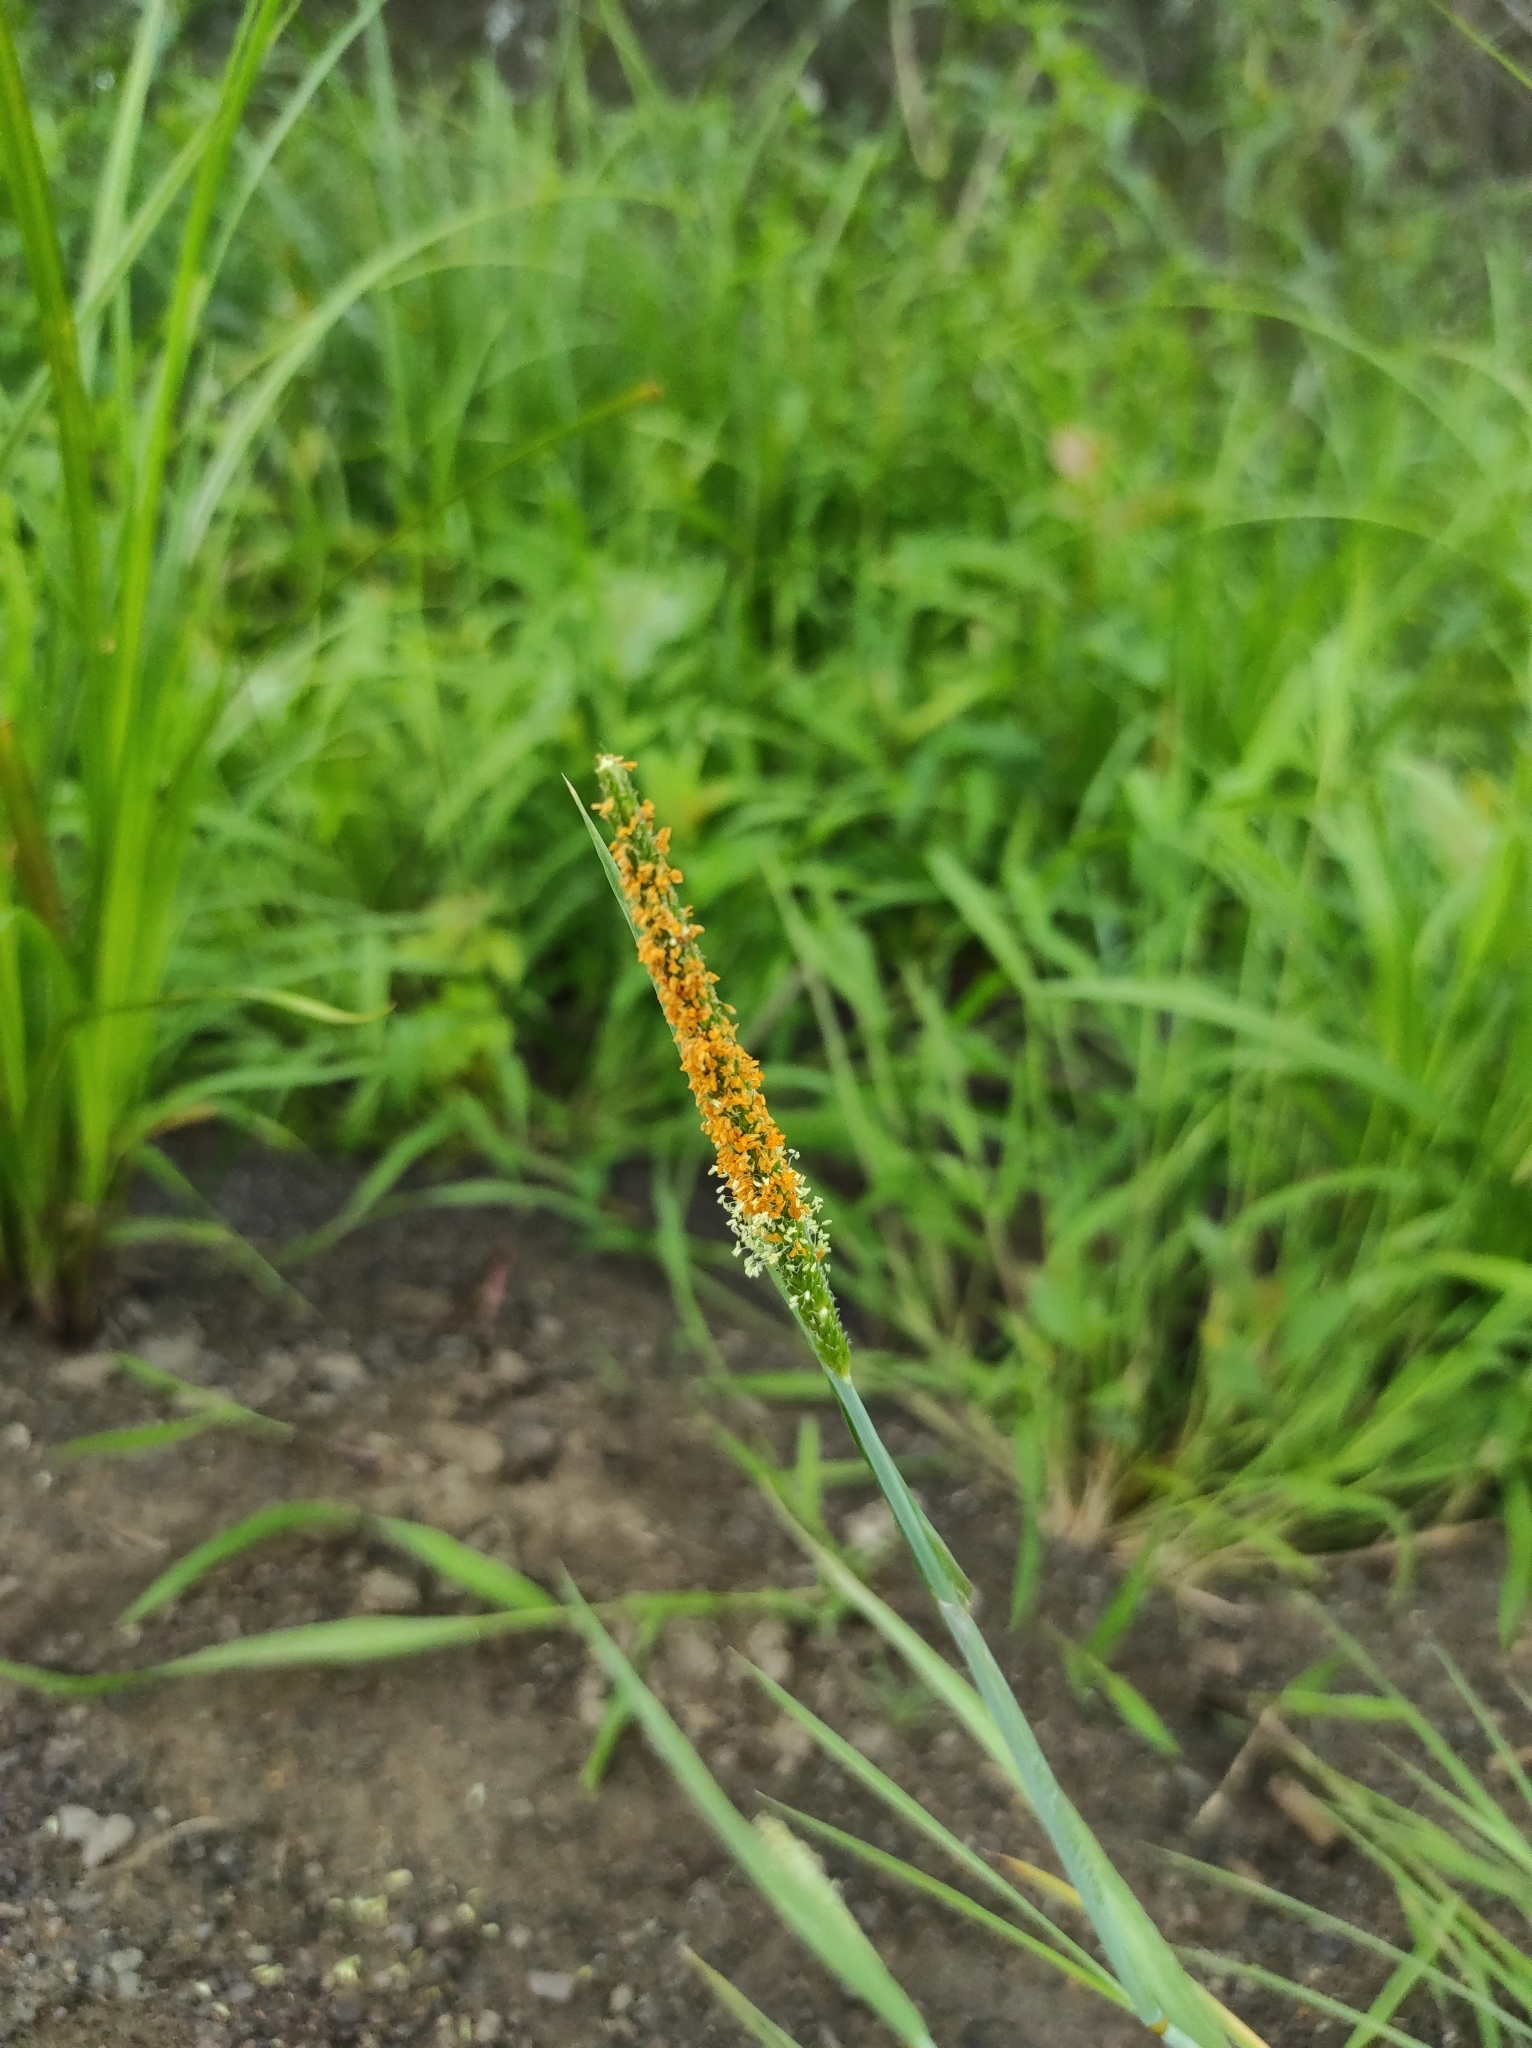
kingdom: Plantae
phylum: Tracheophyta
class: Liliopsida
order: Poales
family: Poaceae
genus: Alopecurus
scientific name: Alopecurus aequalis
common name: Orange foxtail
